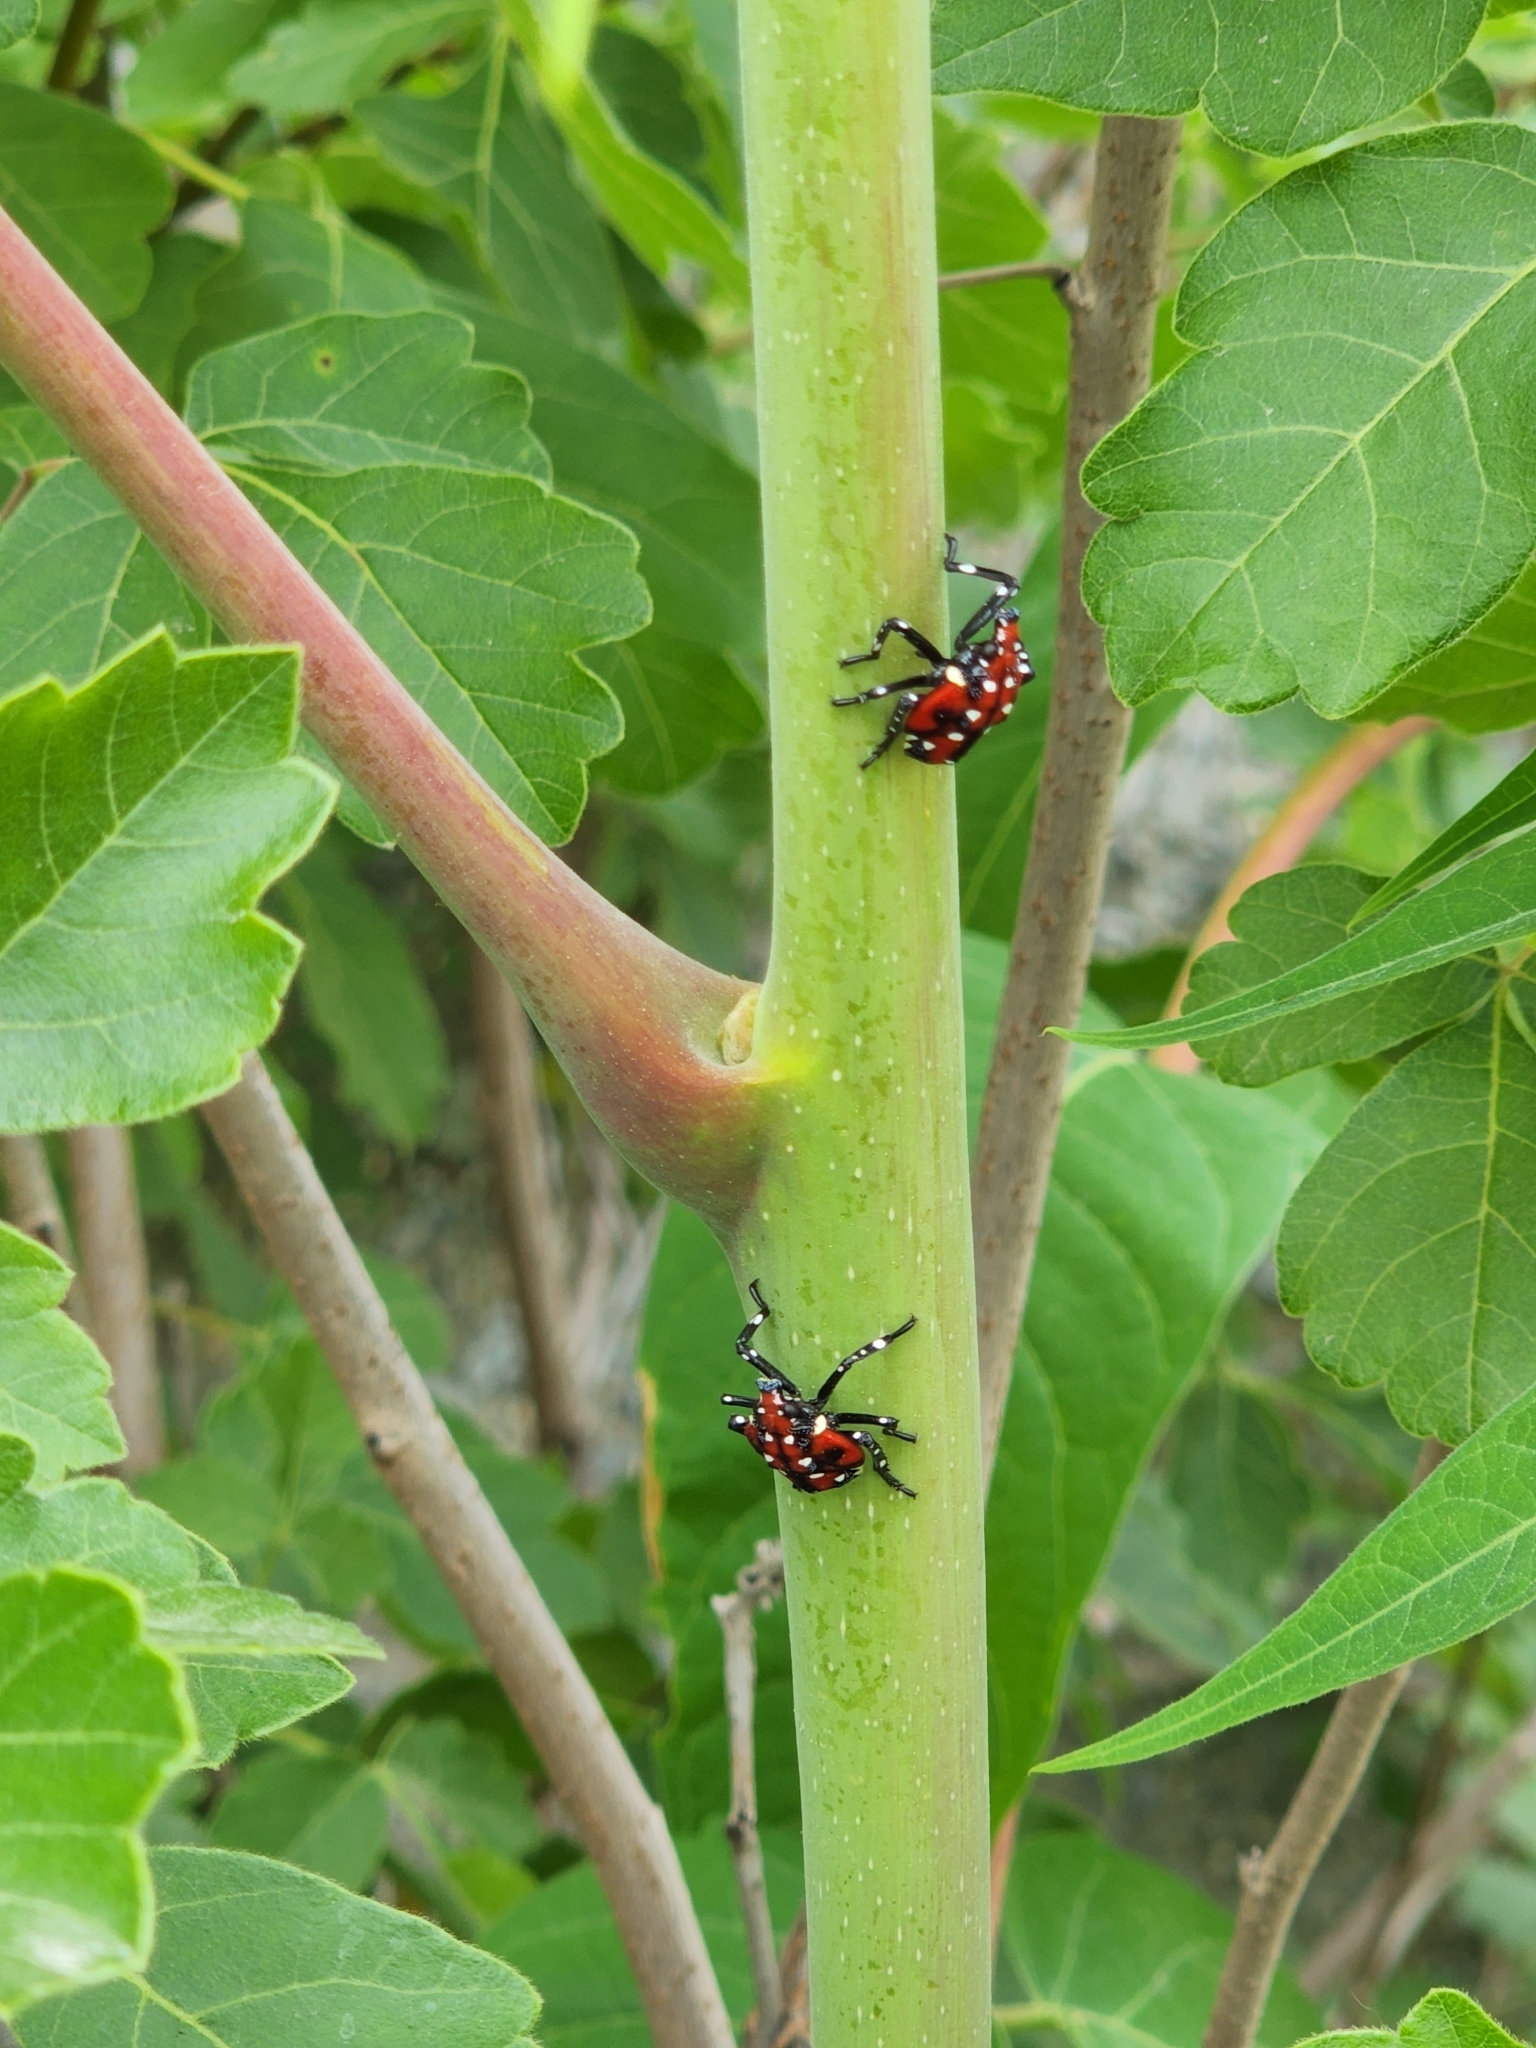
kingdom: Animalia
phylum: Arthropoda
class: Insecta
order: Hemiptera
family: Fulgoridae
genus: Lycorma
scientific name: Lycorma delicatula
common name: Spotted lanternfly
